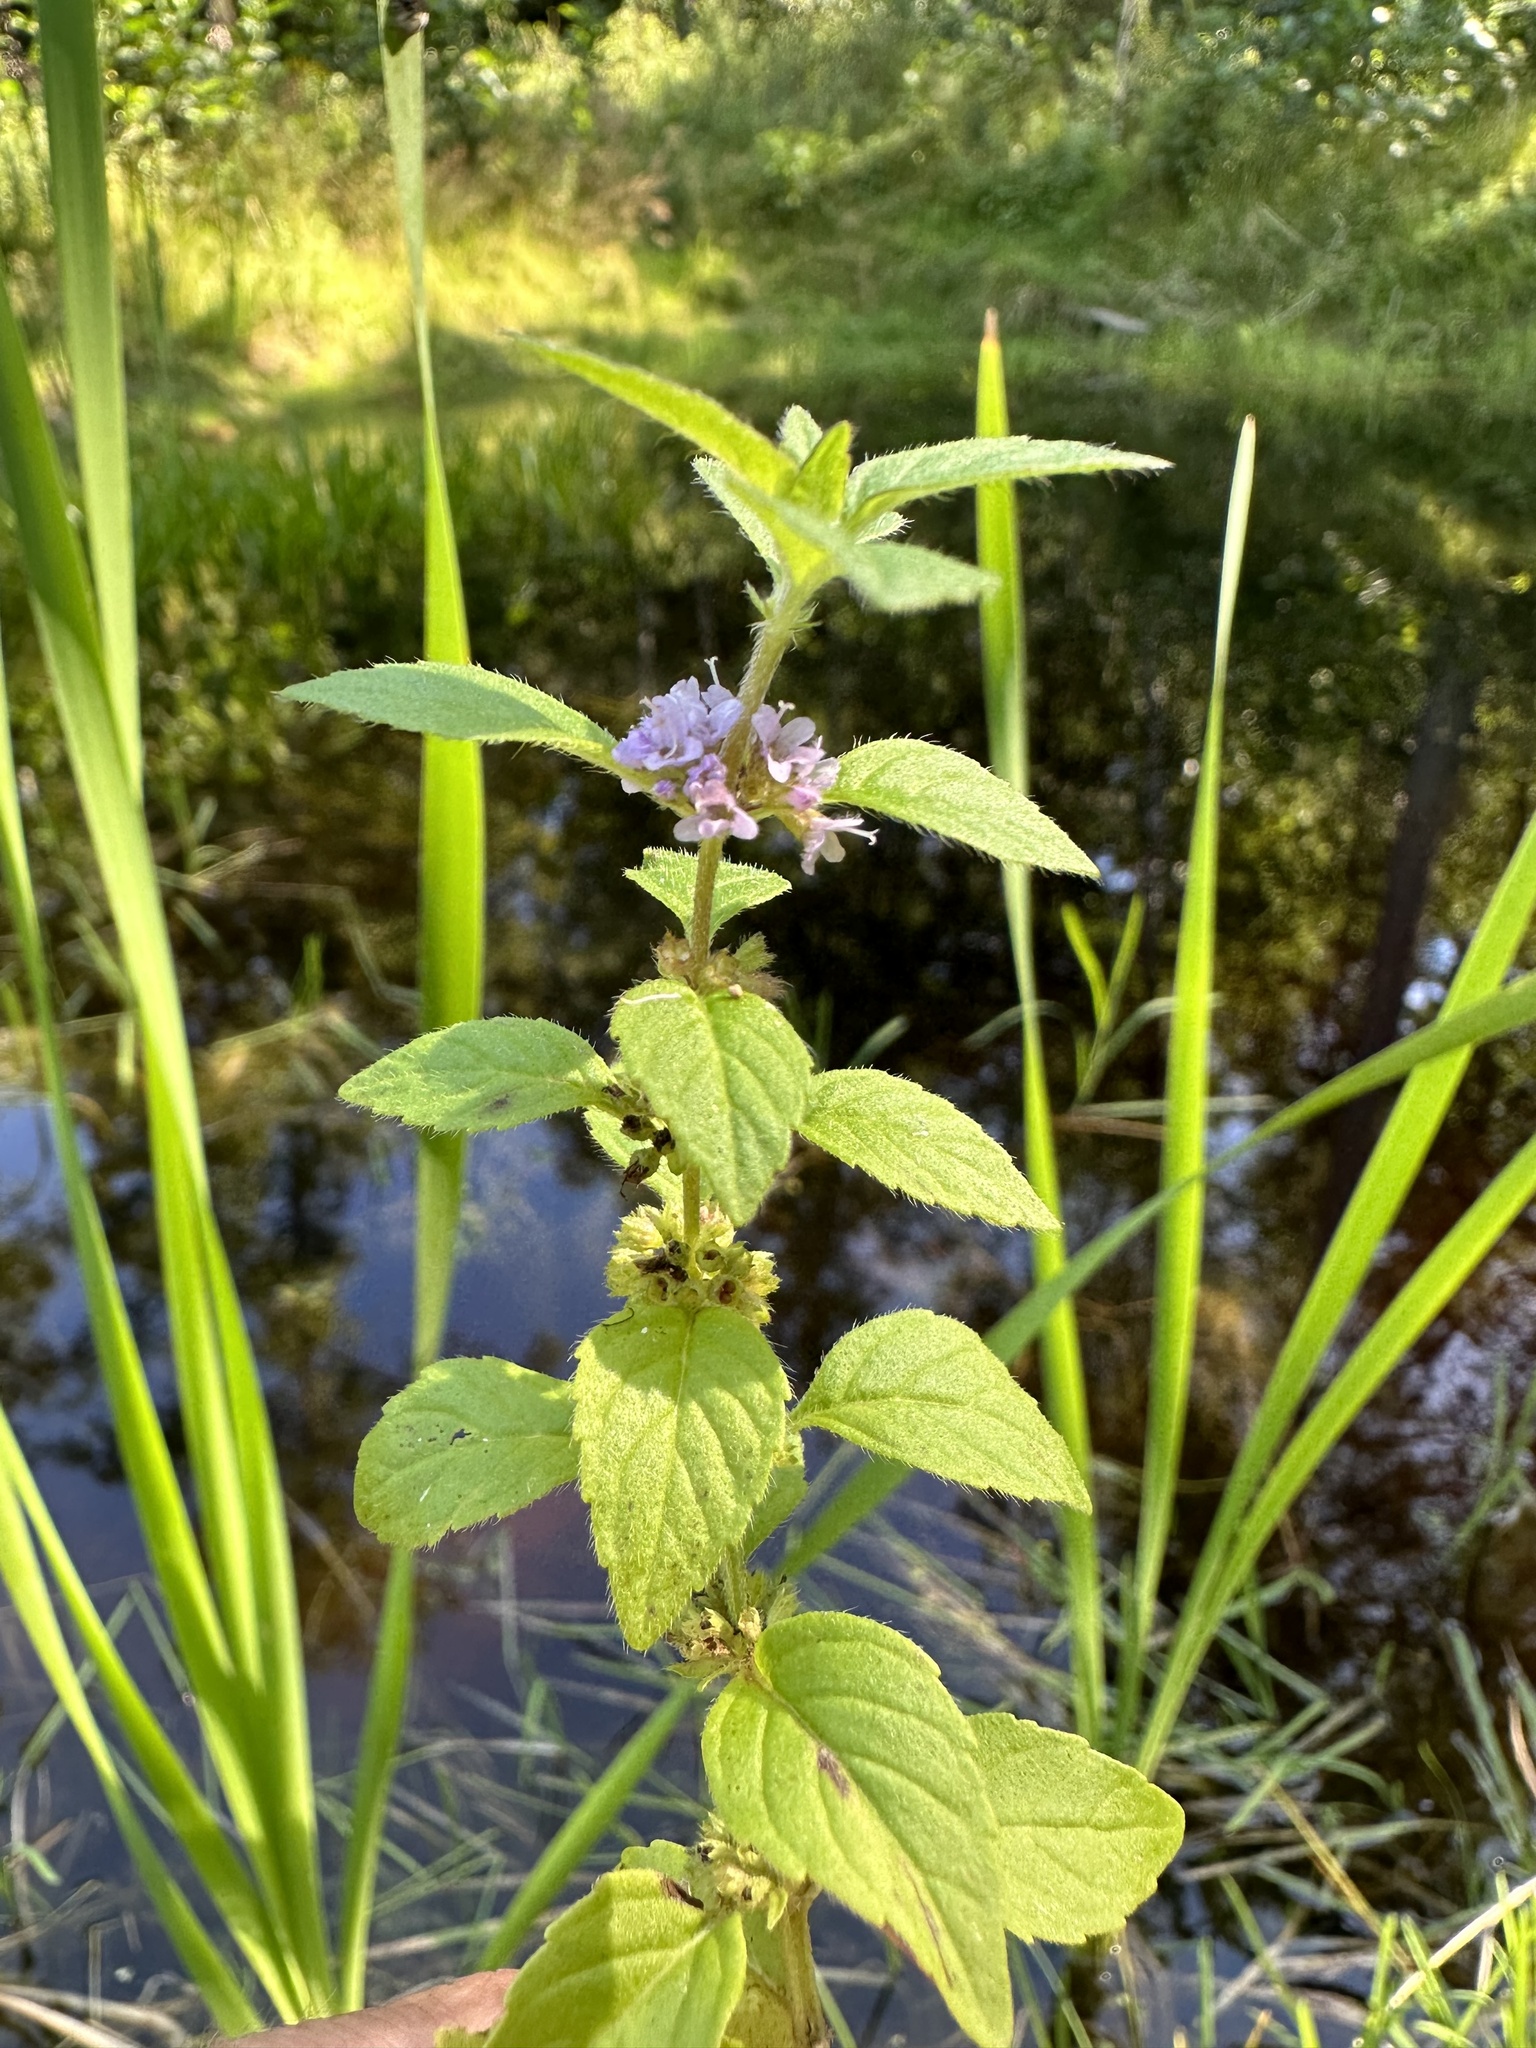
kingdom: Plantae
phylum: Tracheophyta
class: Magnoliopsida
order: Lamiales
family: Lamiaceae
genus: Mentha
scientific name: Mentha arvensis
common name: Corn mint
